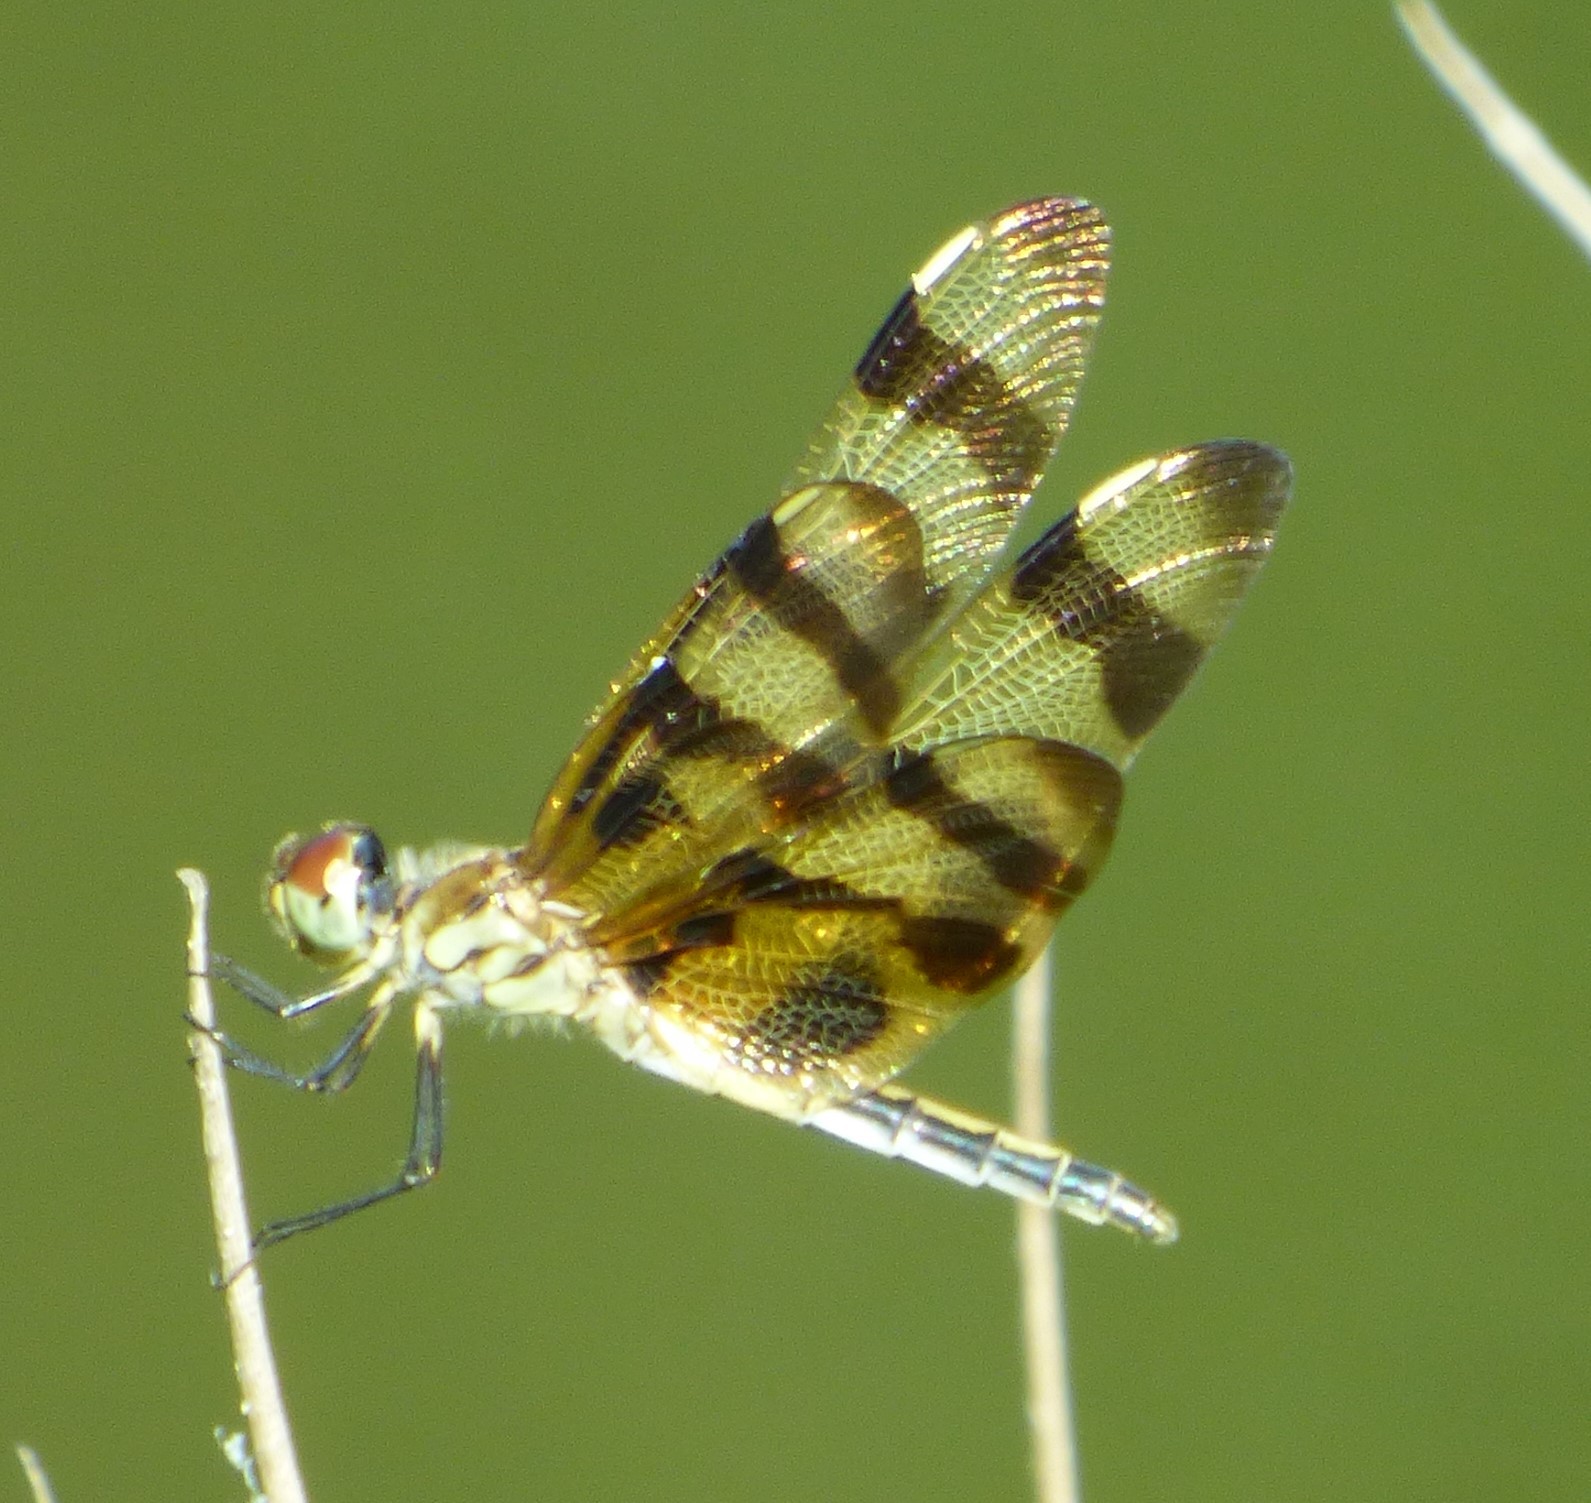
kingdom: Animalia
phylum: Arthropoda
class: Insecta
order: Odonata
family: Libellulidae
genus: Celithemis
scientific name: Celithemis eponina
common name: Halloween pennant
